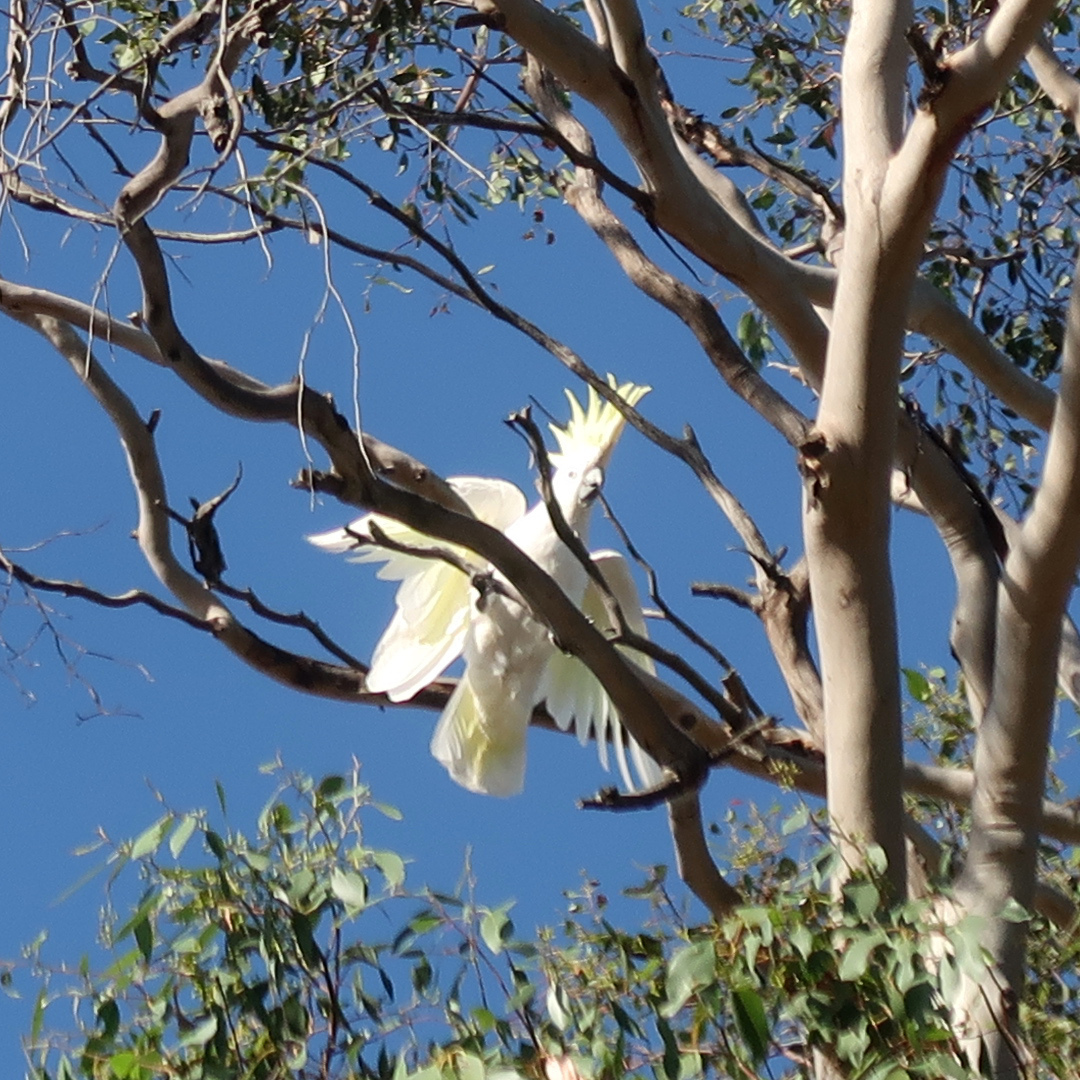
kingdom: Animalia
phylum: Chordata
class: Aves
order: Psittaciformes
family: Psittacidae
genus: Cacatua
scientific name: Cacatua galerita
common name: Sulphur-crested cockatoo
